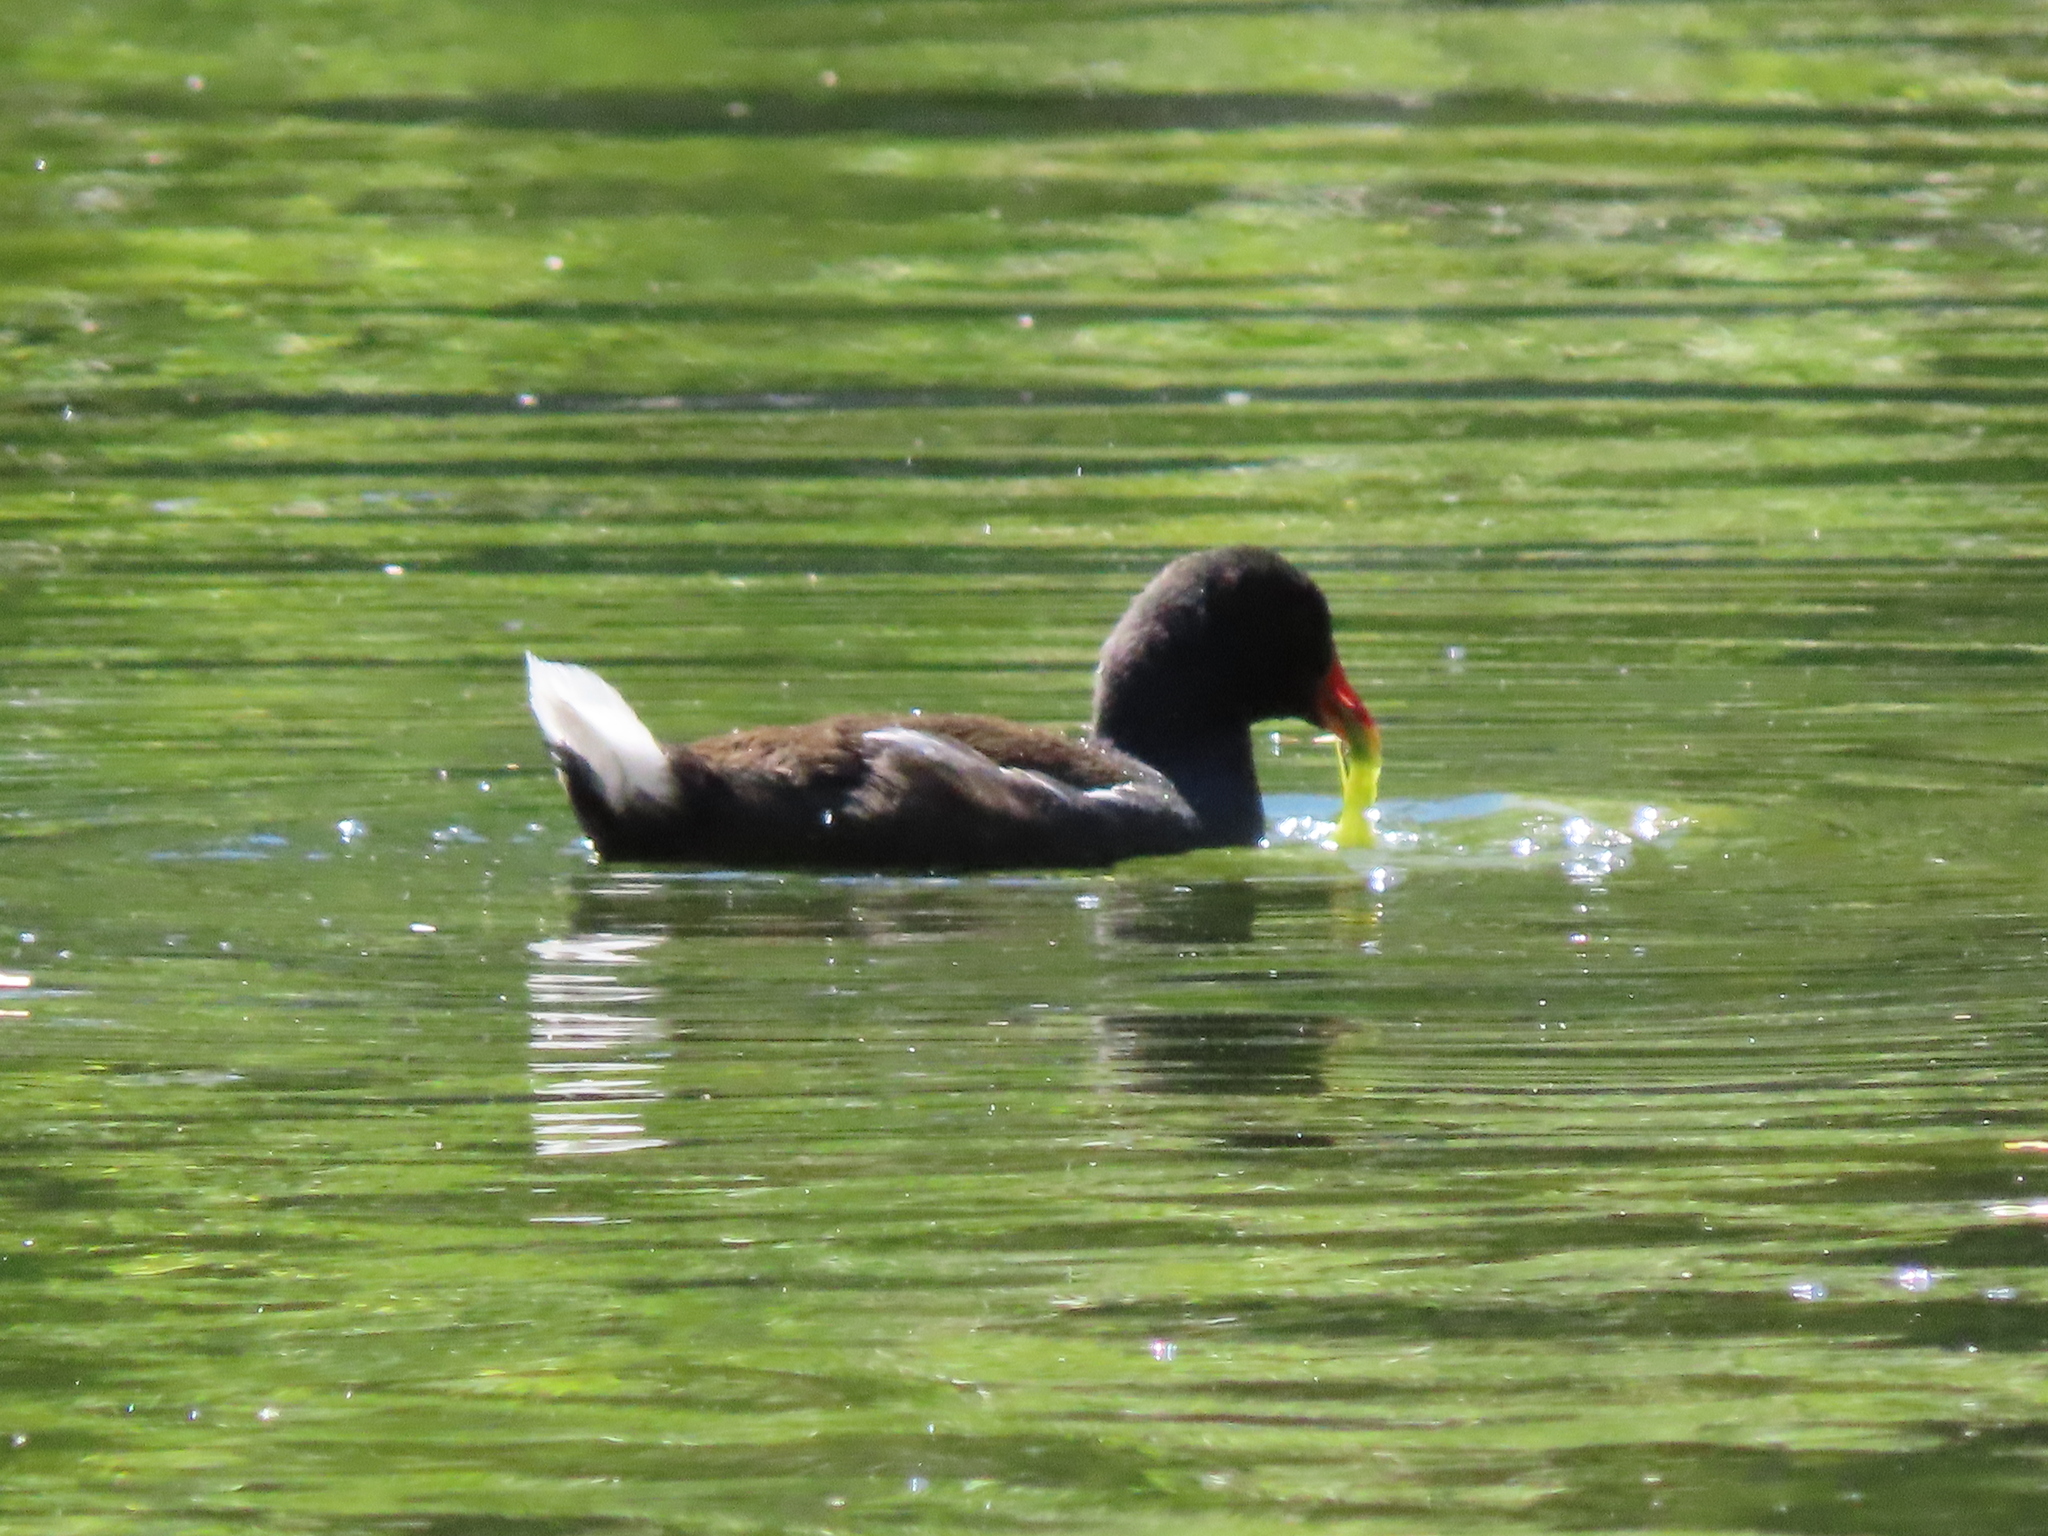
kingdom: Animalia
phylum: Chordata
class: Aves
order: Gruiformes
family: Rallidae
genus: Gallinula
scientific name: Gallinula chloropus
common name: Common moorhen
